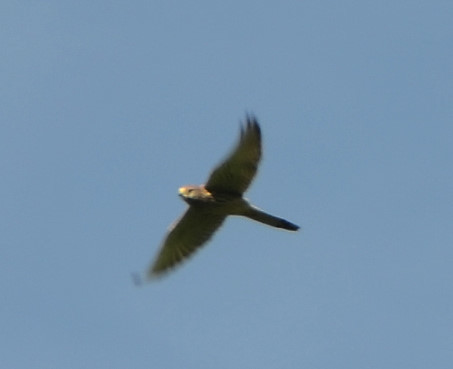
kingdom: Animalia
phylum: Chordata
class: Aves
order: Falconiformes
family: Falconidae
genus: Falco
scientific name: Falco tinnunculus
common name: Common kestrel
